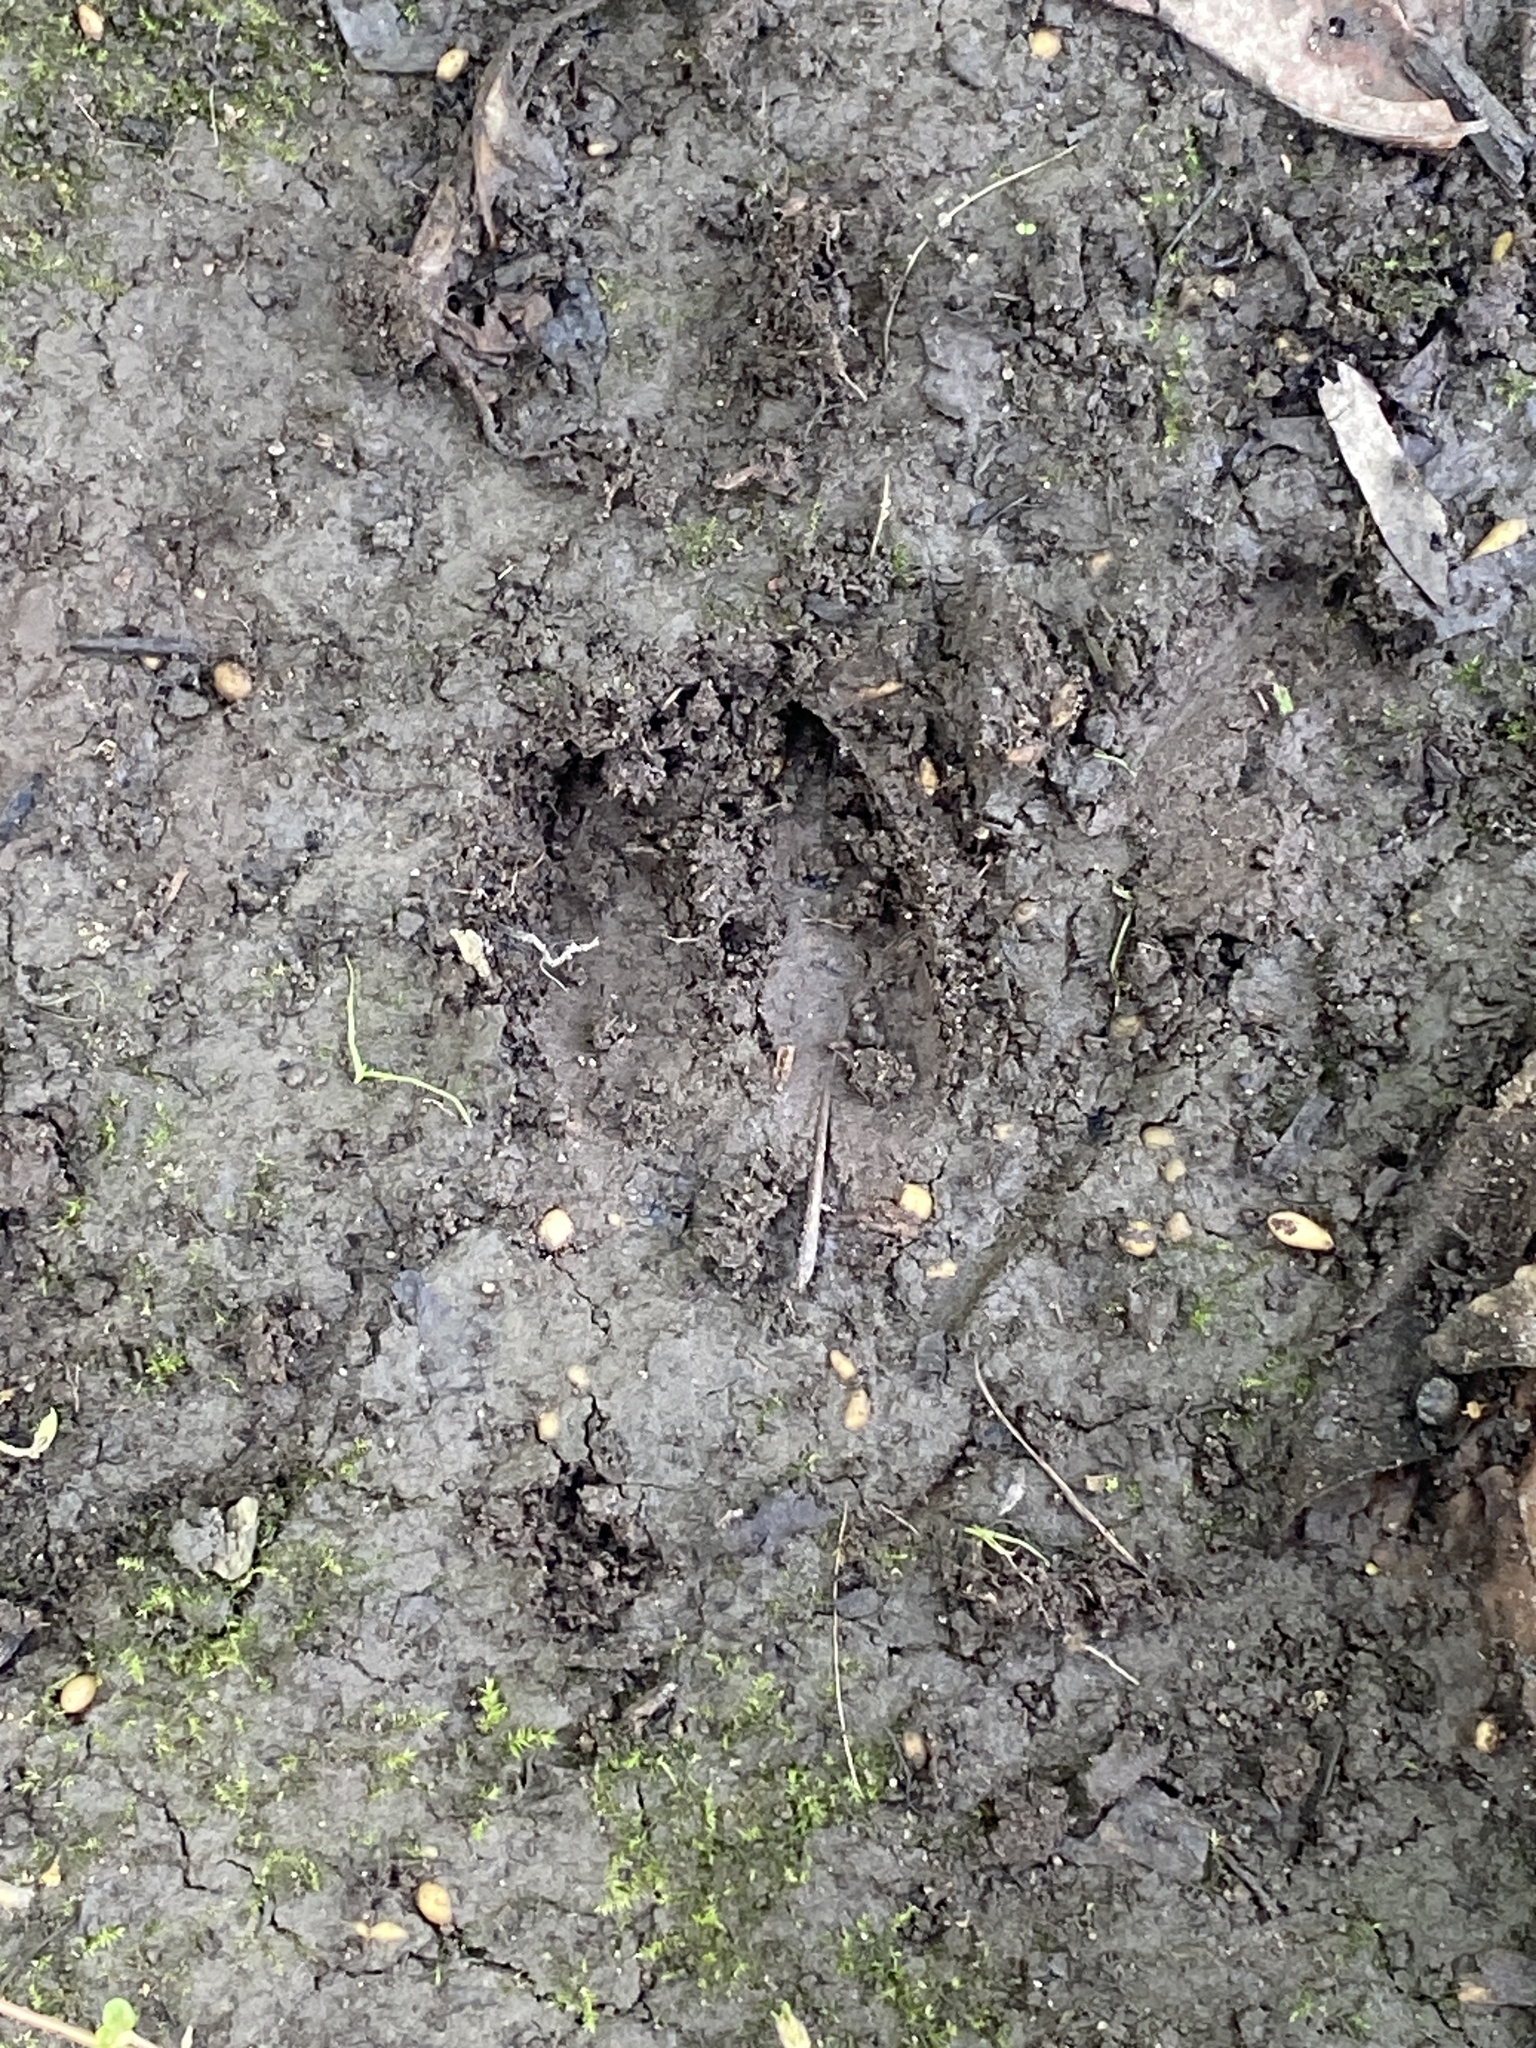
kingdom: Animalia
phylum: Chordata
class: Mammalia
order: Artiodactyla
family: Cervidae
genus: Odocoileus
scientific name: Odocoileus virginianus
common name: White-tailed deer
